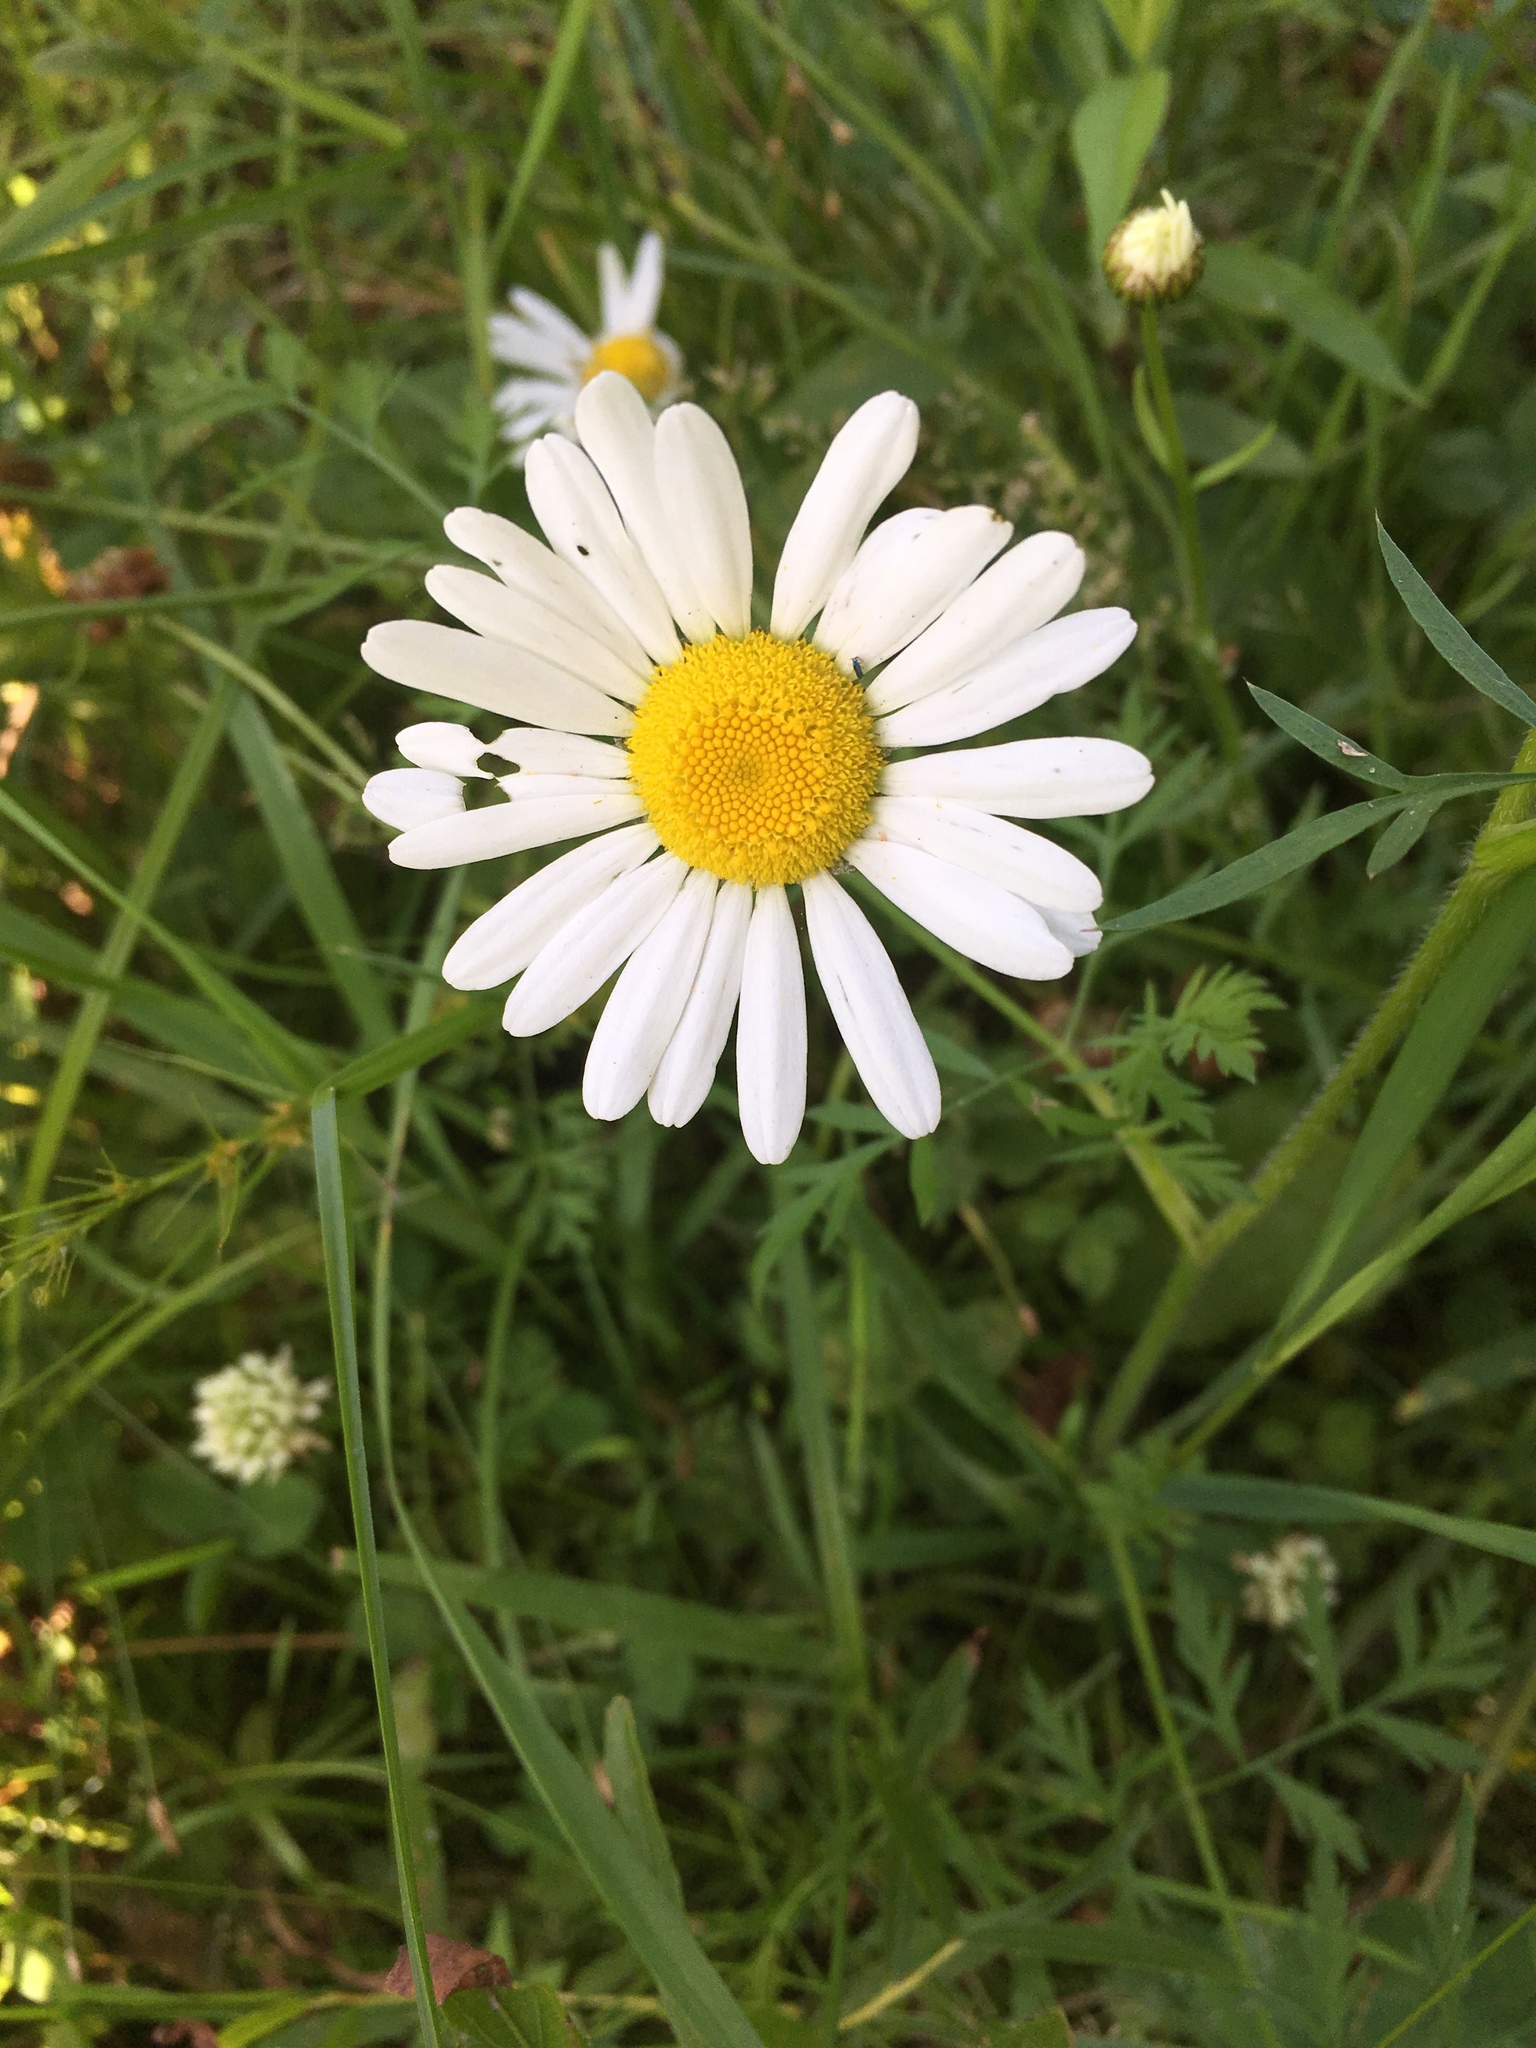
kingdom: Plantae
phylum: Tracheophyta
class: Magnoliopsida
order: Asterales
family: Asteraceae
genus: Leucanthemum
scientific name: Leucanthemum vulgare
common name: Oxeye daisy
